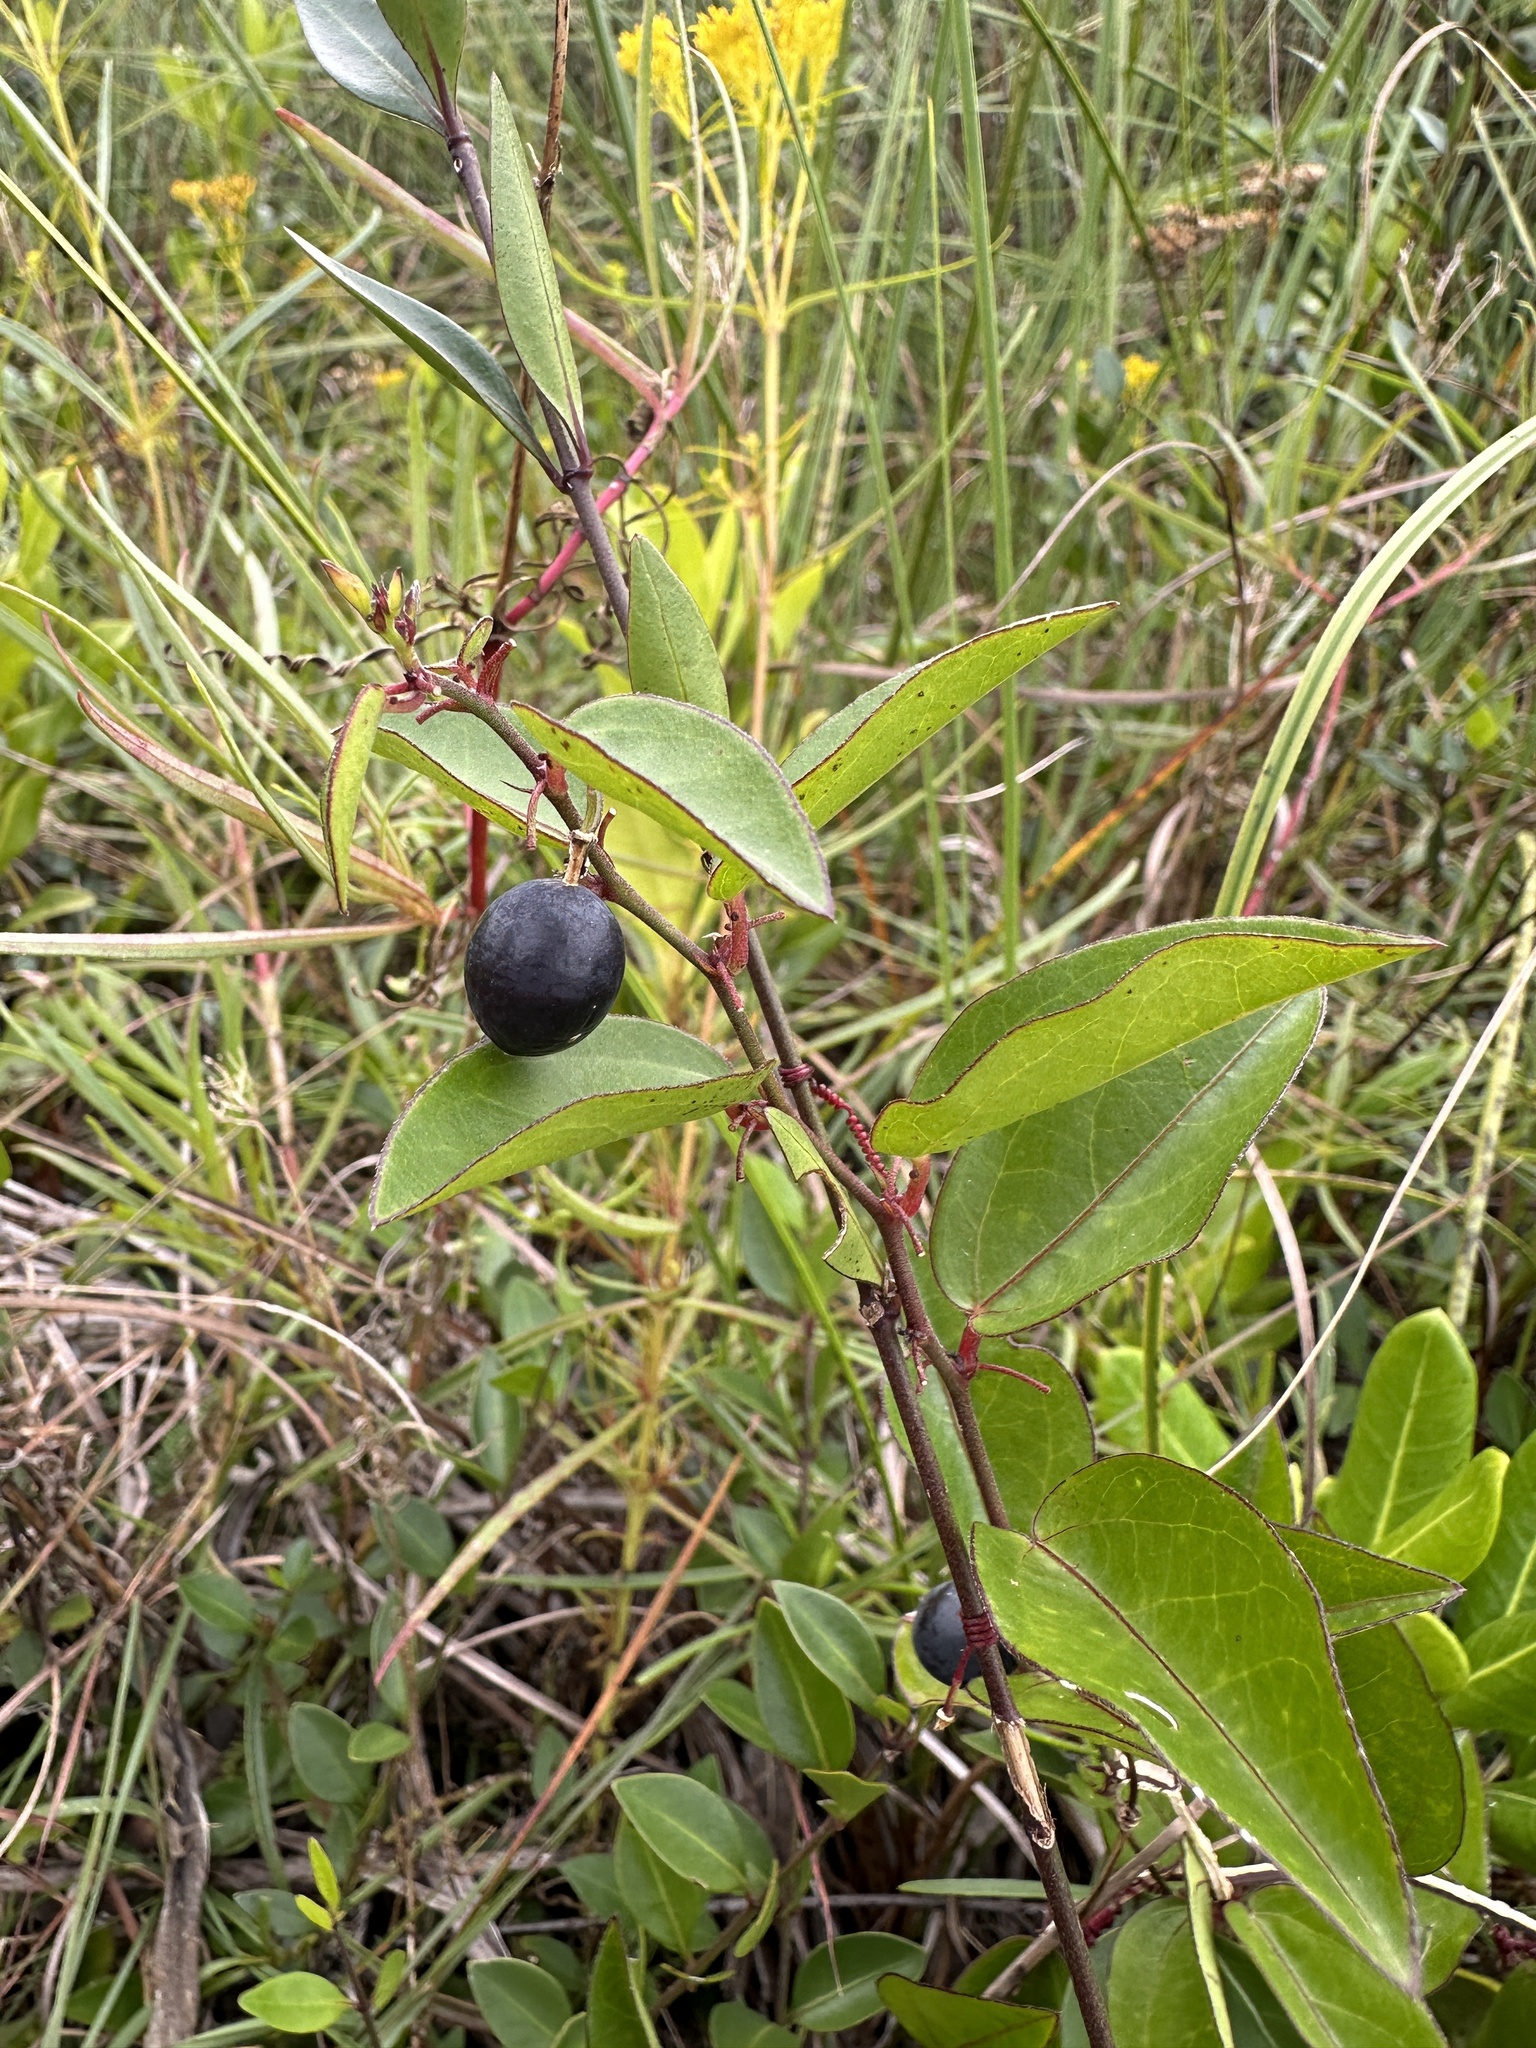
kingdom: Plantae
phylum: Tracheophyta
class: Magnoliopsida
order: Malpighiales
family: Passifloraceae
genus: Passiflora
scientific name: Passiflora pallida
